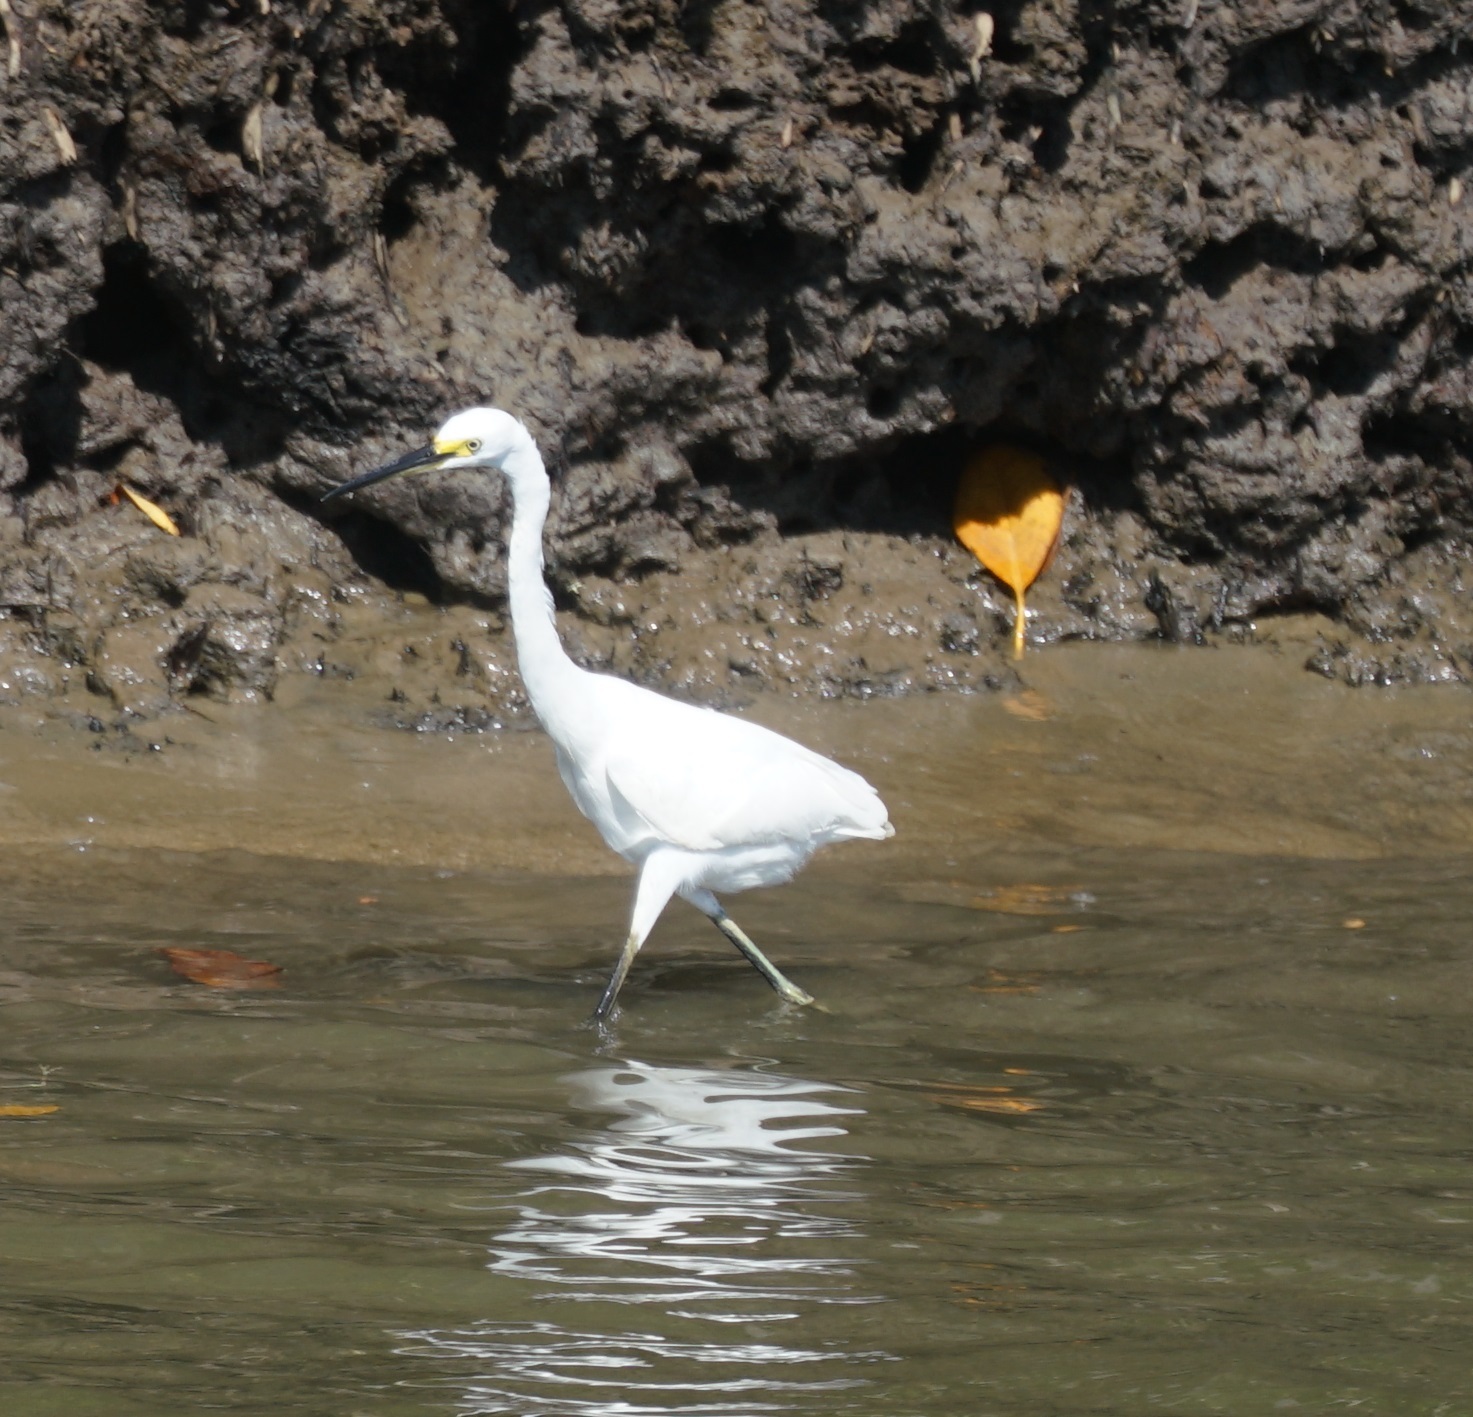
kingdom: Animalia
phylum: Chordata
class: Aves
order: Pelecaniformes
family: Ardeidae
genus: Egretta
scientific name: Egretta garzetta
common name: Little egret
